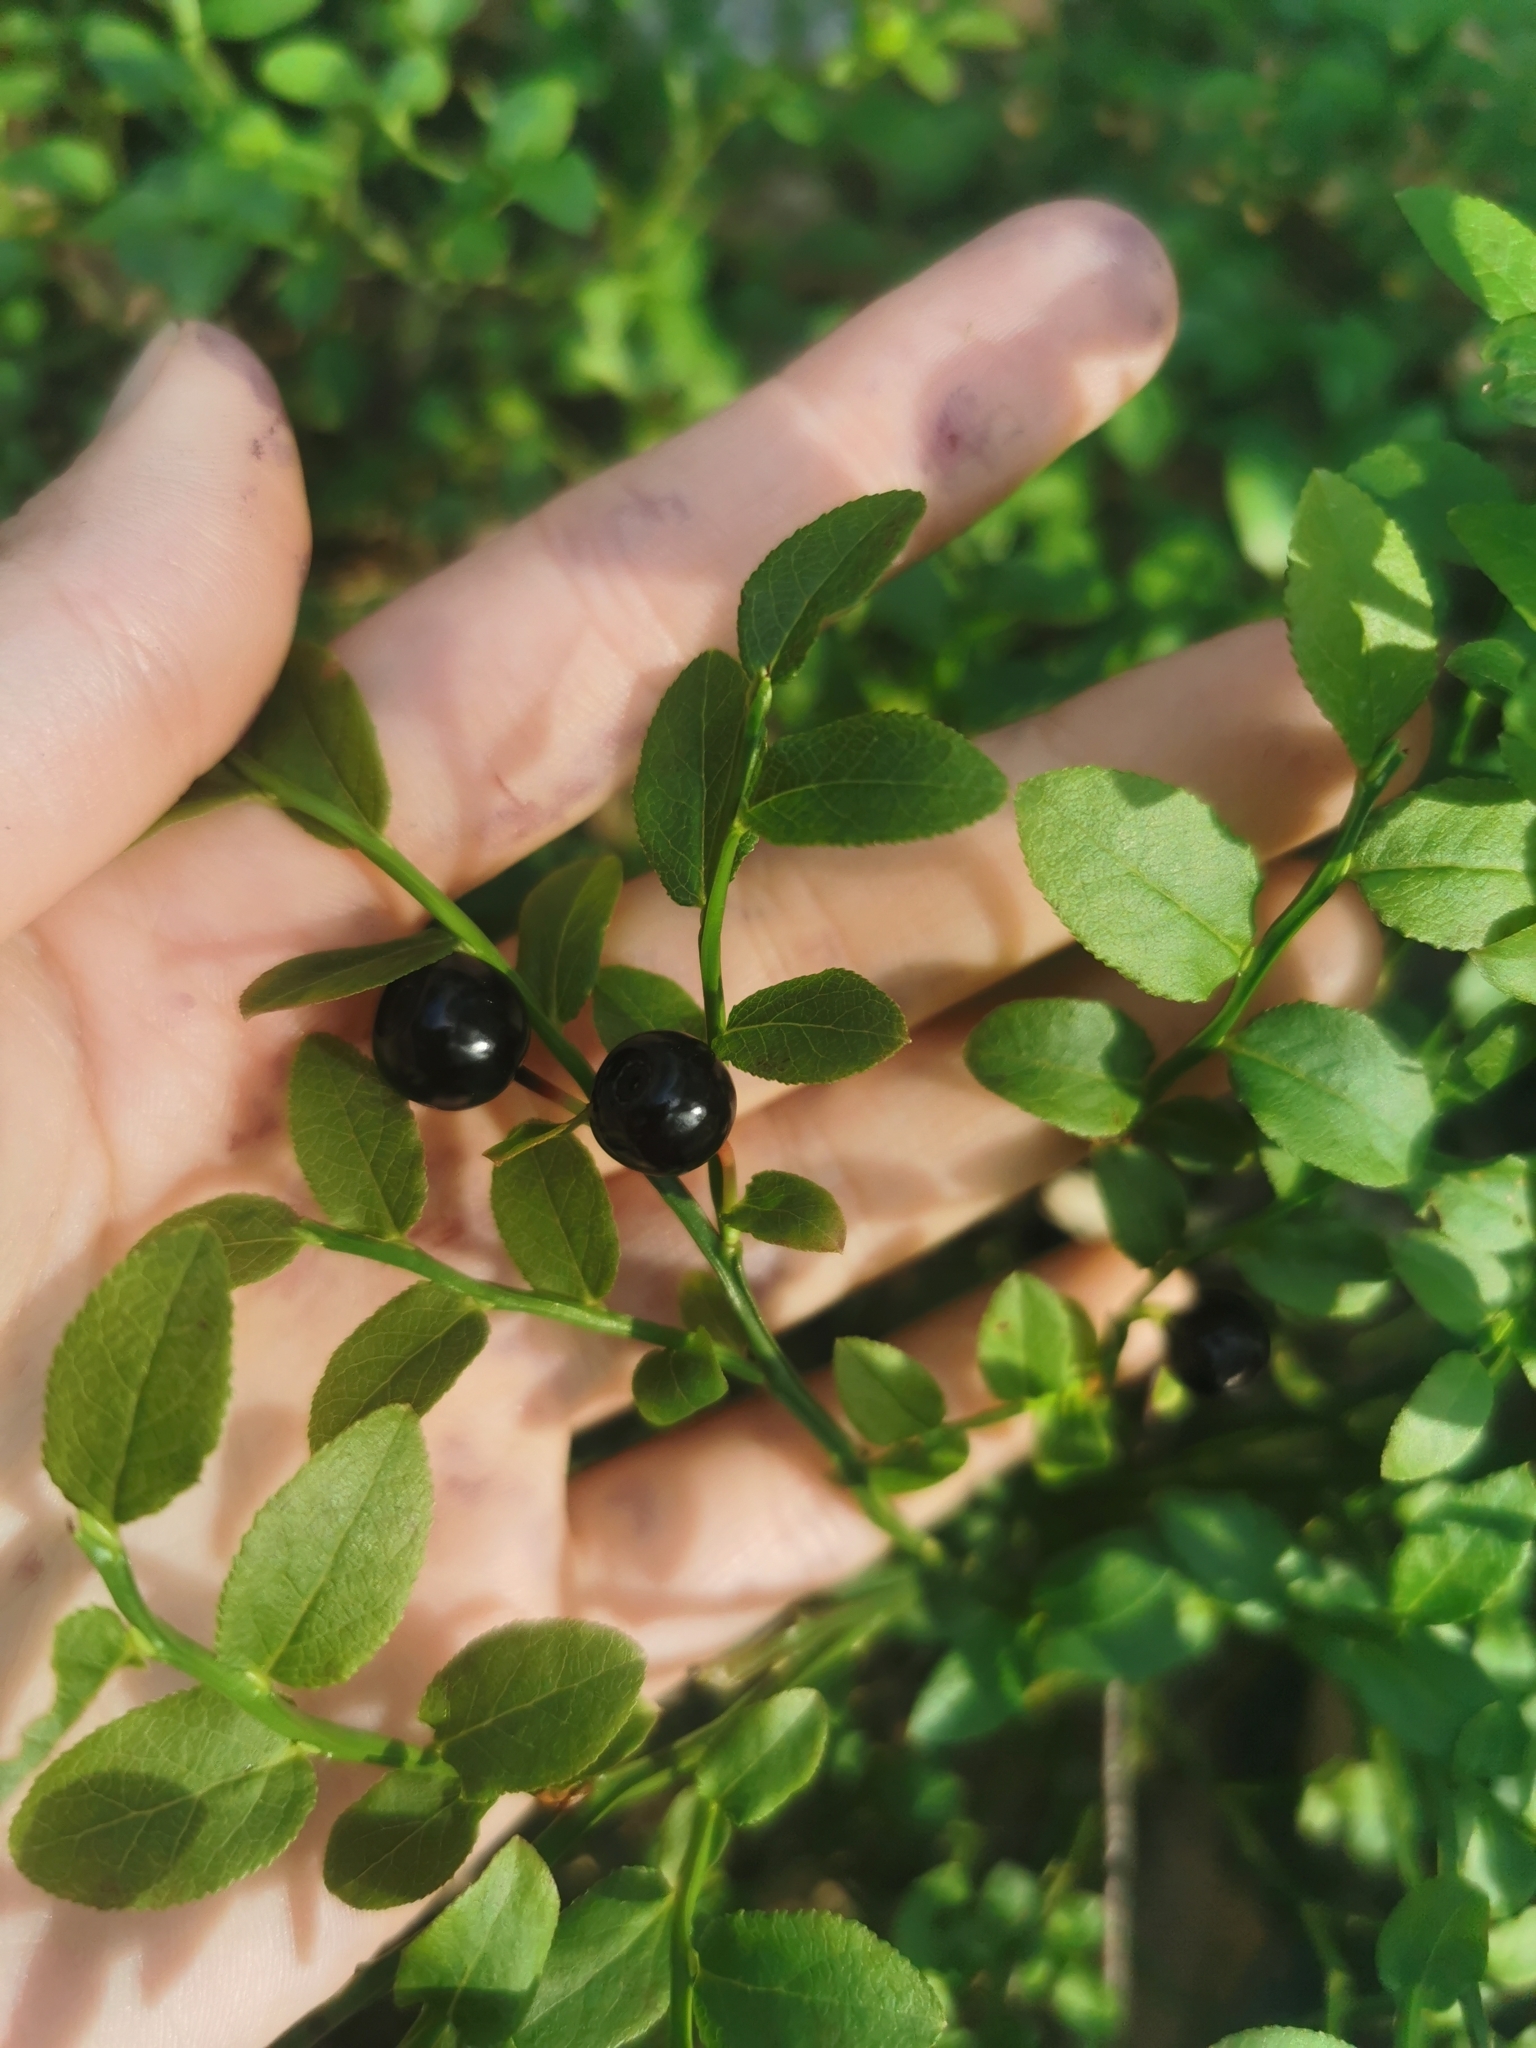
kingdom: Plantae
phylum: Tracheophyta
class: Magnoliopsida
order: Ericales
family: Ericaceae
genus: Vaccinium
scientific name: Vaccinium myrtillus
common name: Bilberry
